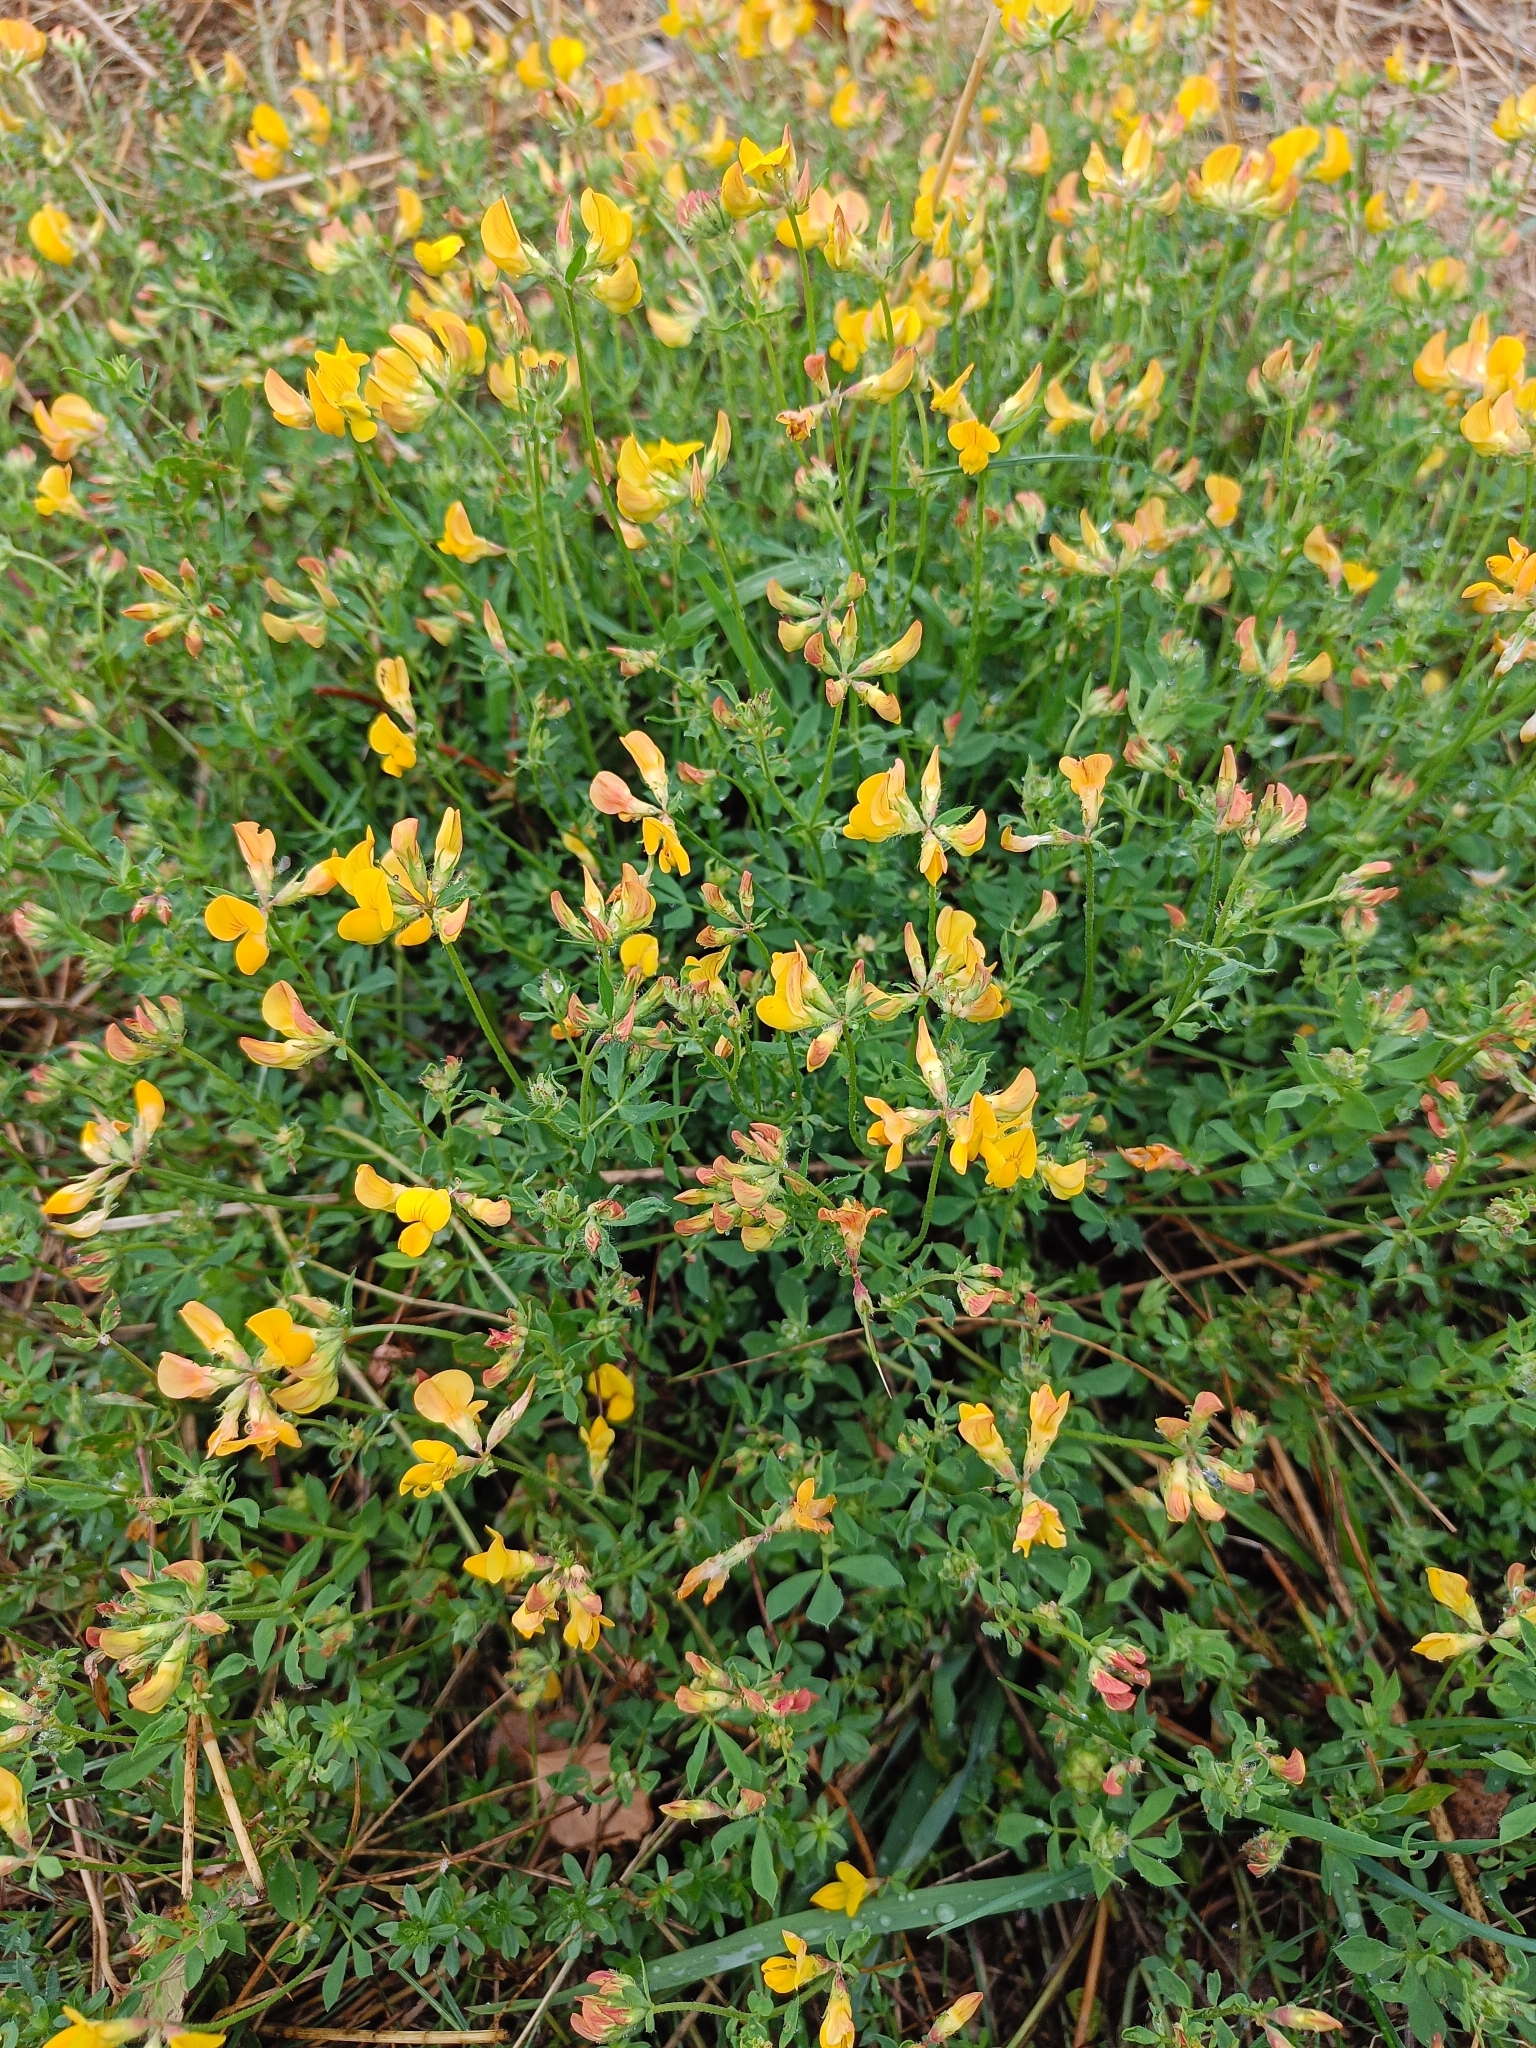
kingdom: Plantae
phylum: Tracheophyta
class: Magnoliopsida
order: Fabales
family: Fabaceae
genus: Lotus
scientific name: Lotus corniculatus
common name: Common bird's-foot-trefoil
